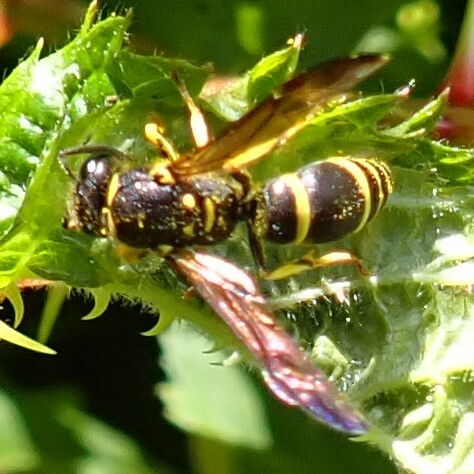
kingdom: Animalia
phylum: Arthropoda
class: Insecta
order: Hymenoptera
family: Vespidae
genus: Ancistrocerus
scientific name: Ancistrocerus adiabatus
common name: Bramble mason wasp
